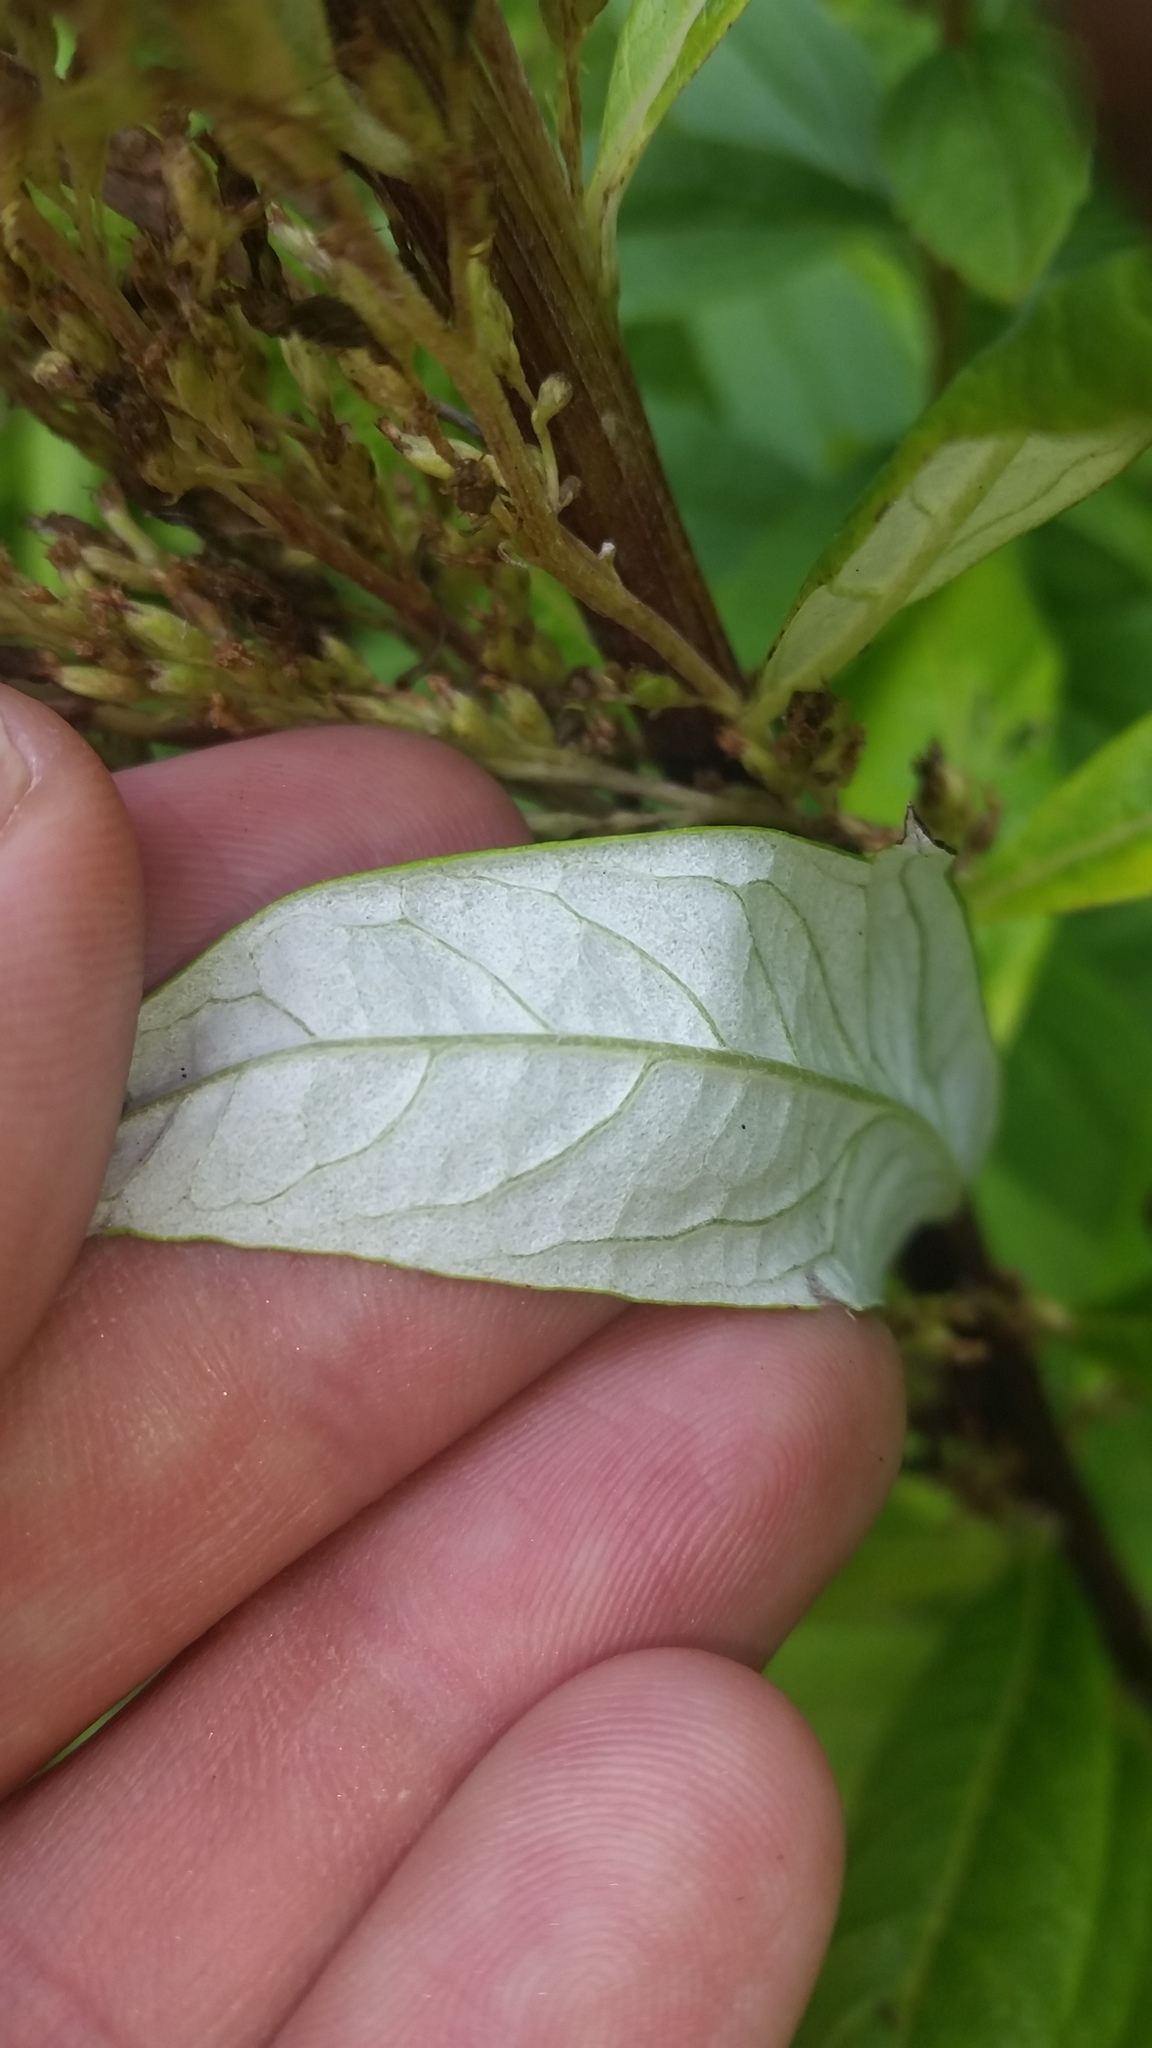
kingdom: Plantae
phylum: Tracheophyta
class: Magnoliopsida
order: Asterales
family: Asteraceae
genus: Artemisia
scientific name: Artemisia suksdorfii
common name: Suksdorf sagewort
